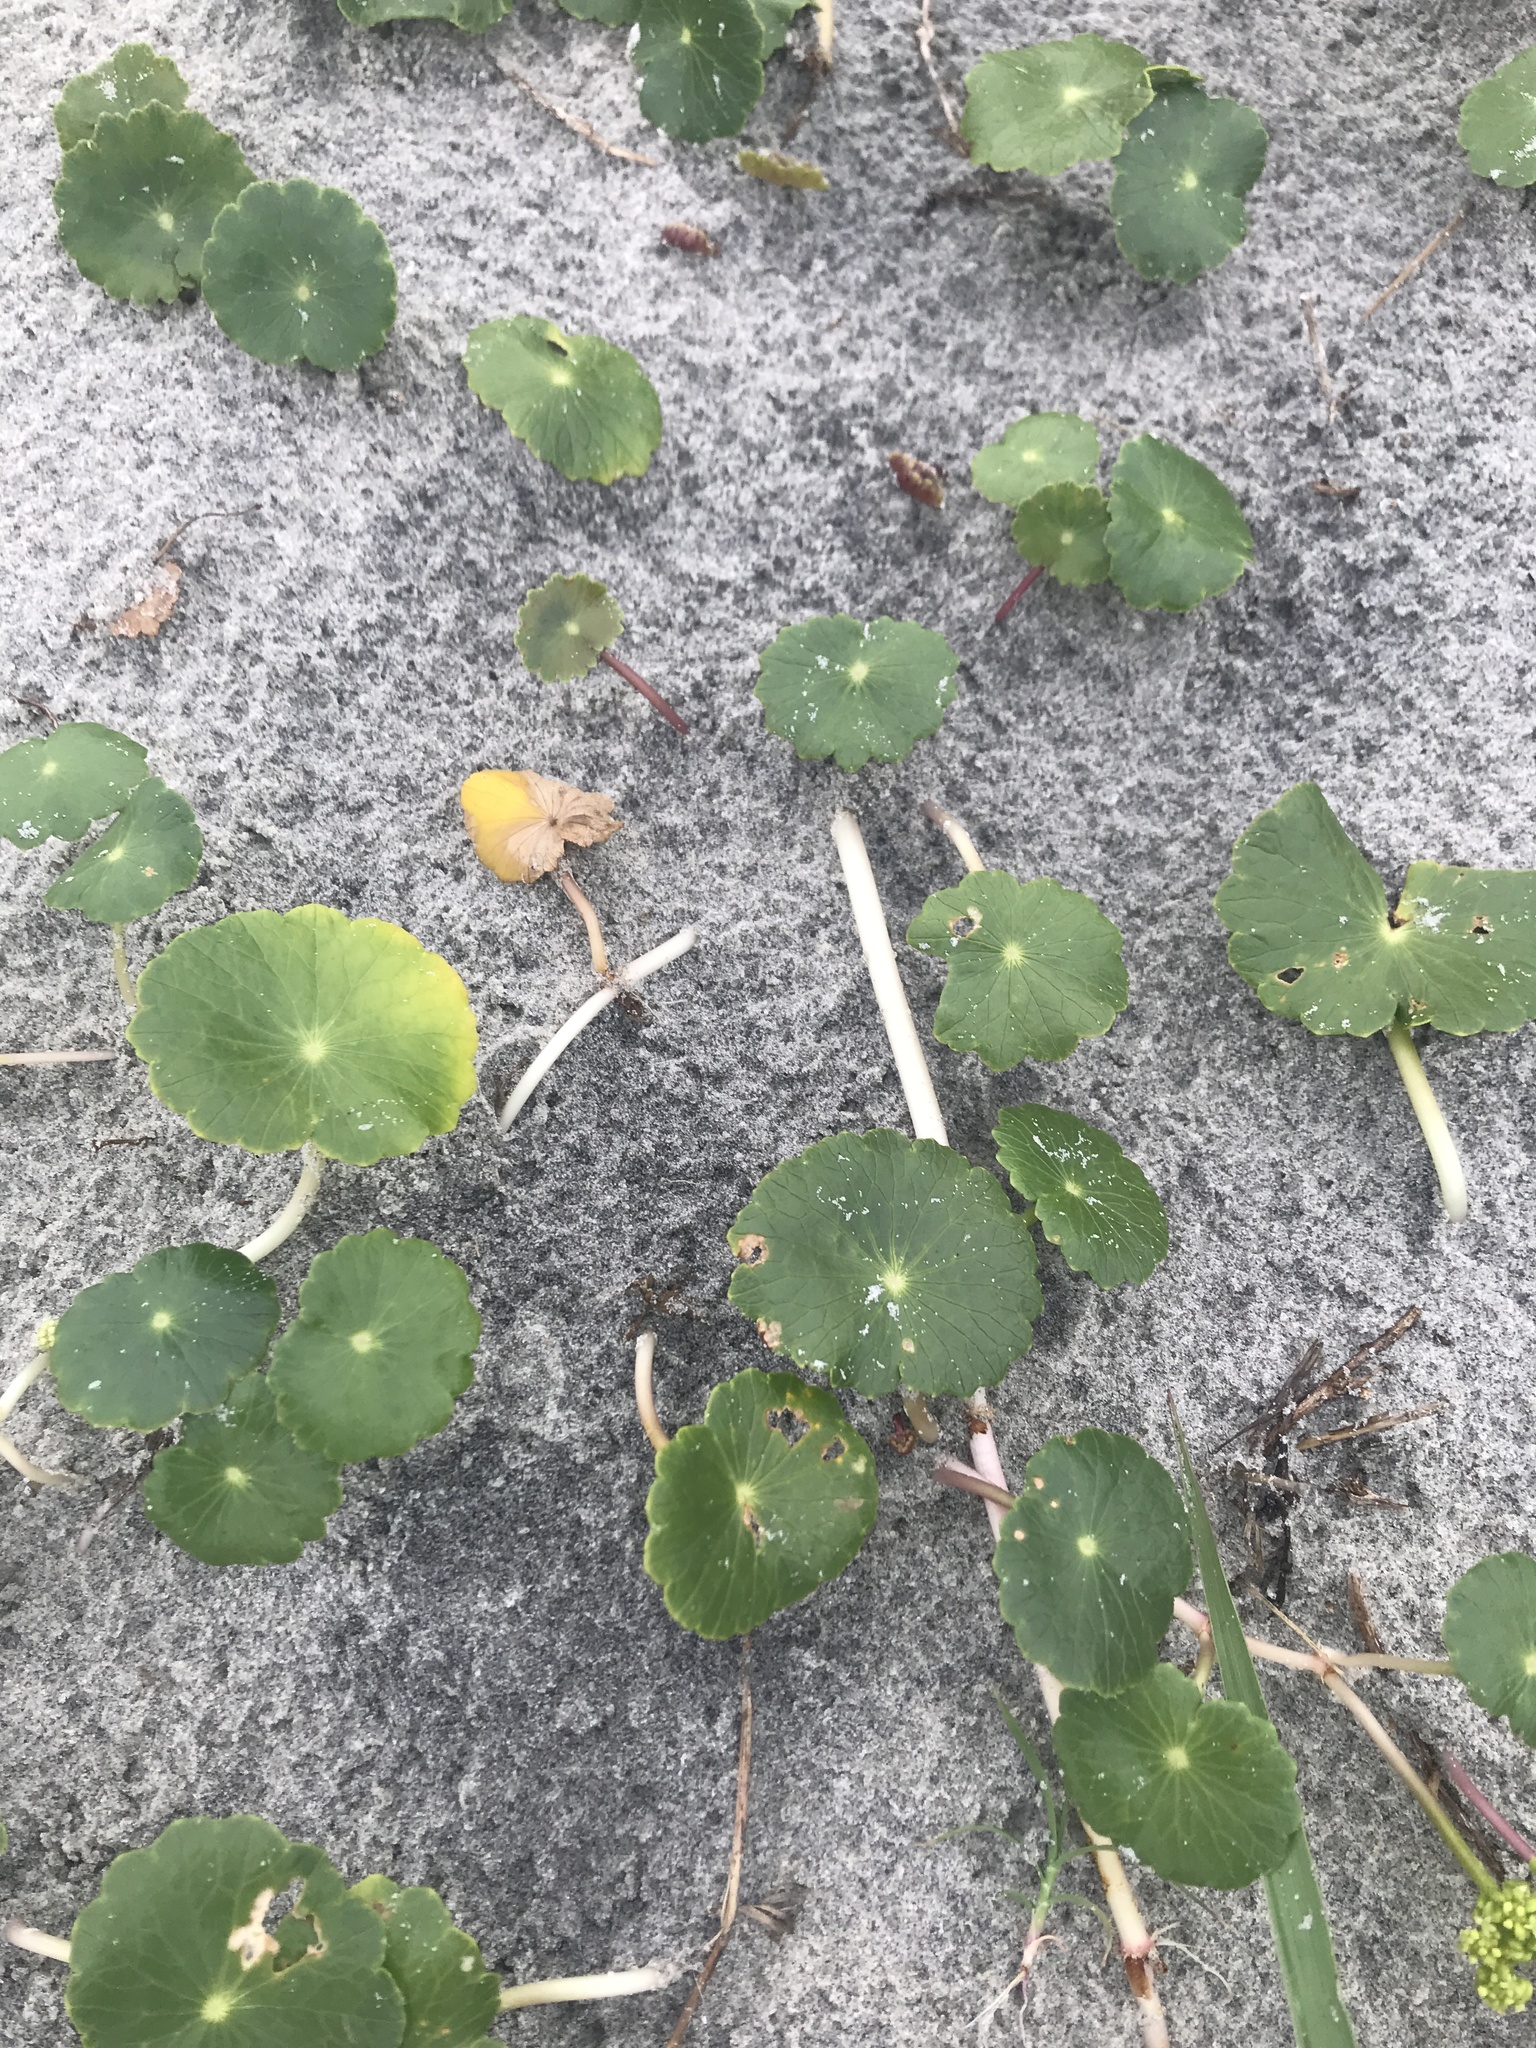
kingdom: Plantae
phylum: Tracheophyta
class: Magnoliopsida
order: Apiales
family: Araliaceae
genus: Hydrocotyle
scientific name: Hydrocotyle bonariensis
